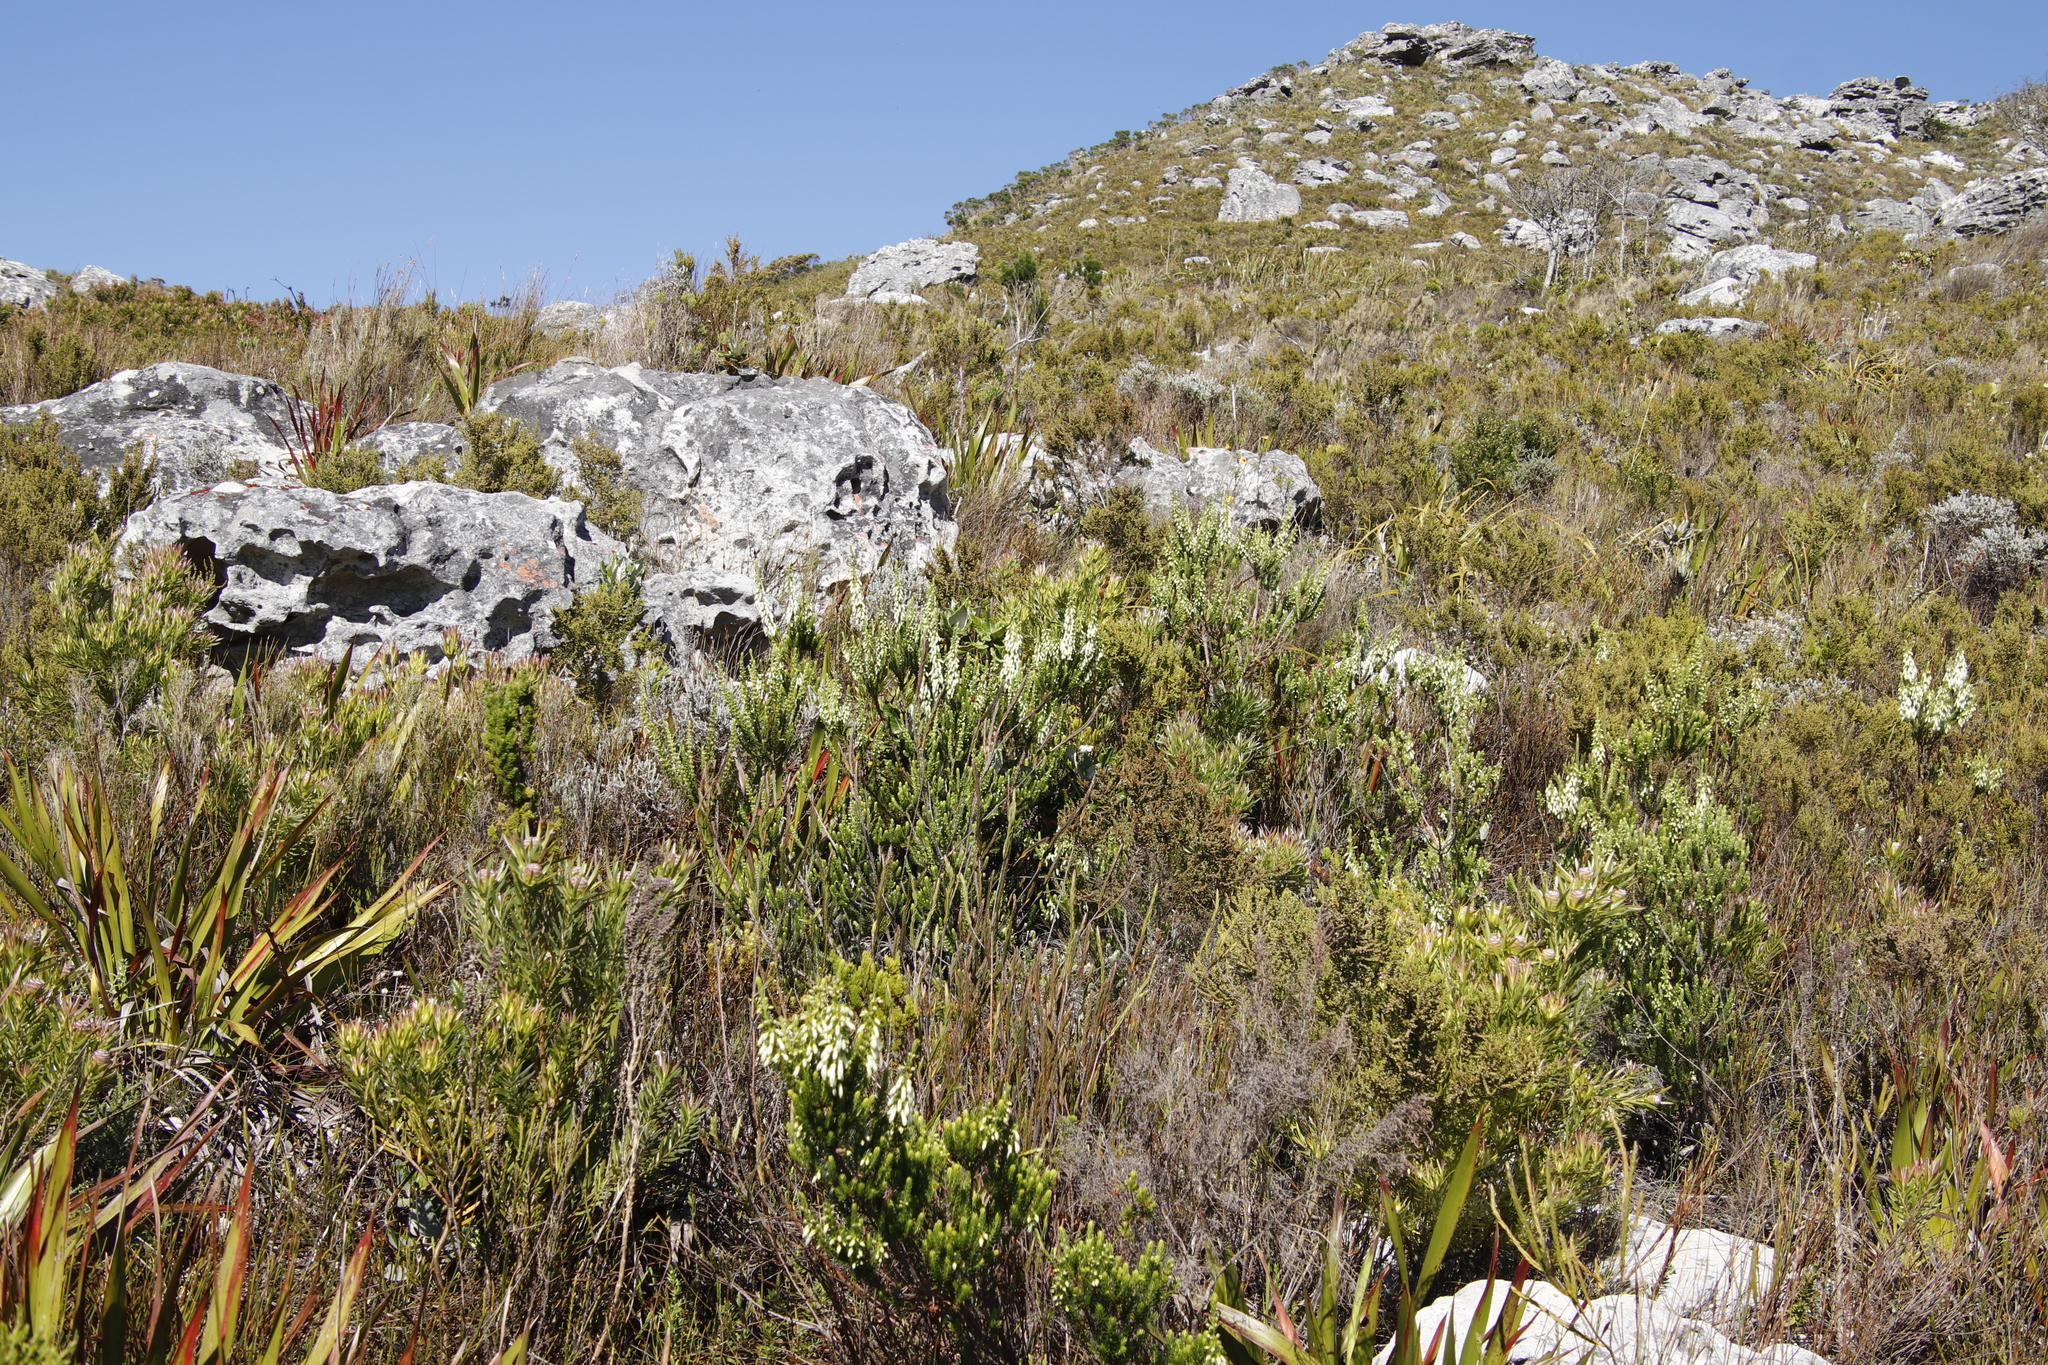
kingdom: Plantae
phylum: Tracheophyta
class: Magnoliopsida
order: Ericales
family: Ericaceae
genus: Erica
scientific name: Erica mammosa
